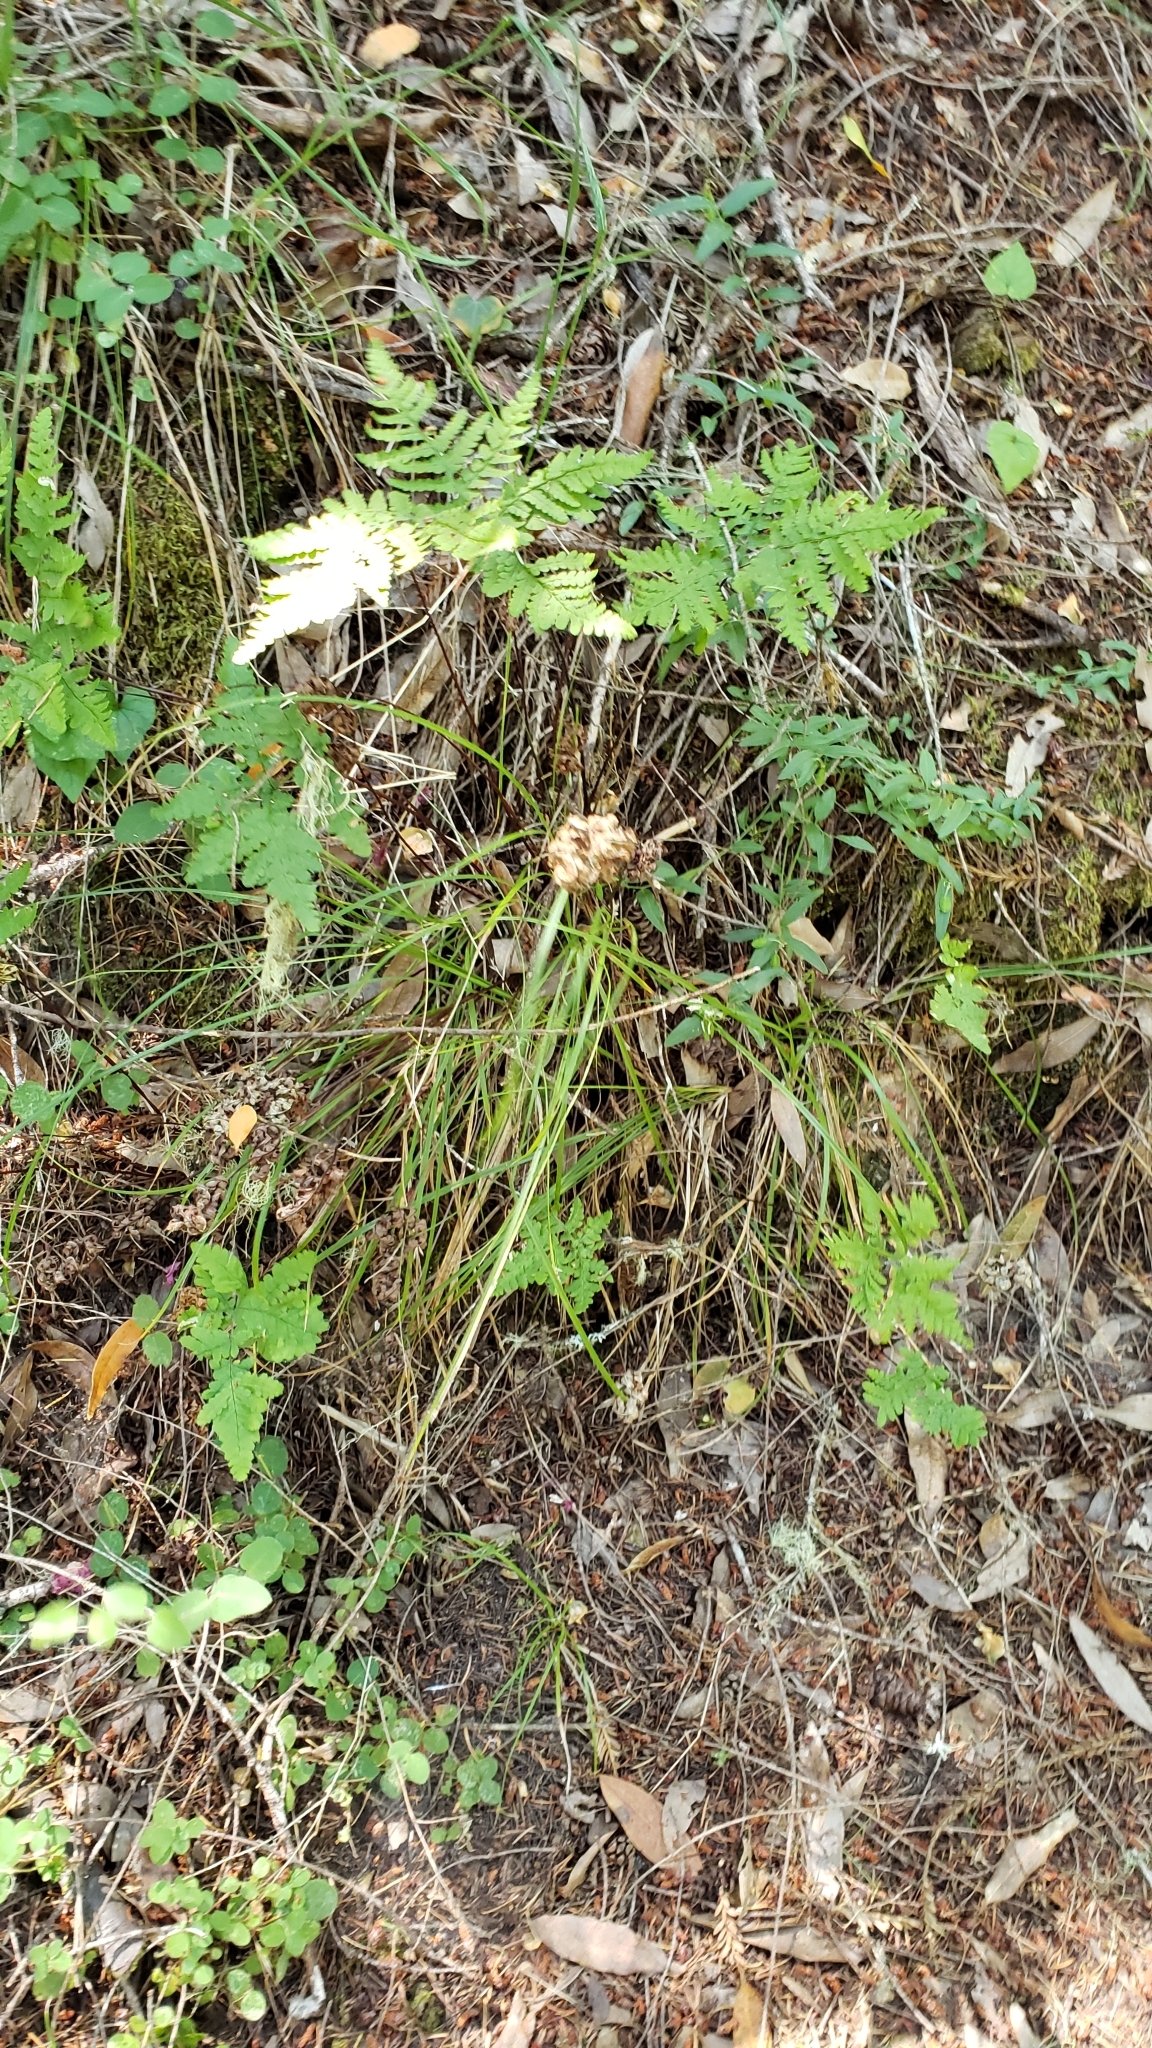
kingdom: Plantae
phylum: Tracheophyta
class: Polypodiopsida
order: Polypodiales
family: Pteridaceae
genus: Pentagramma
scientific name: Pentagramma triangularis
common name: Gold fern
